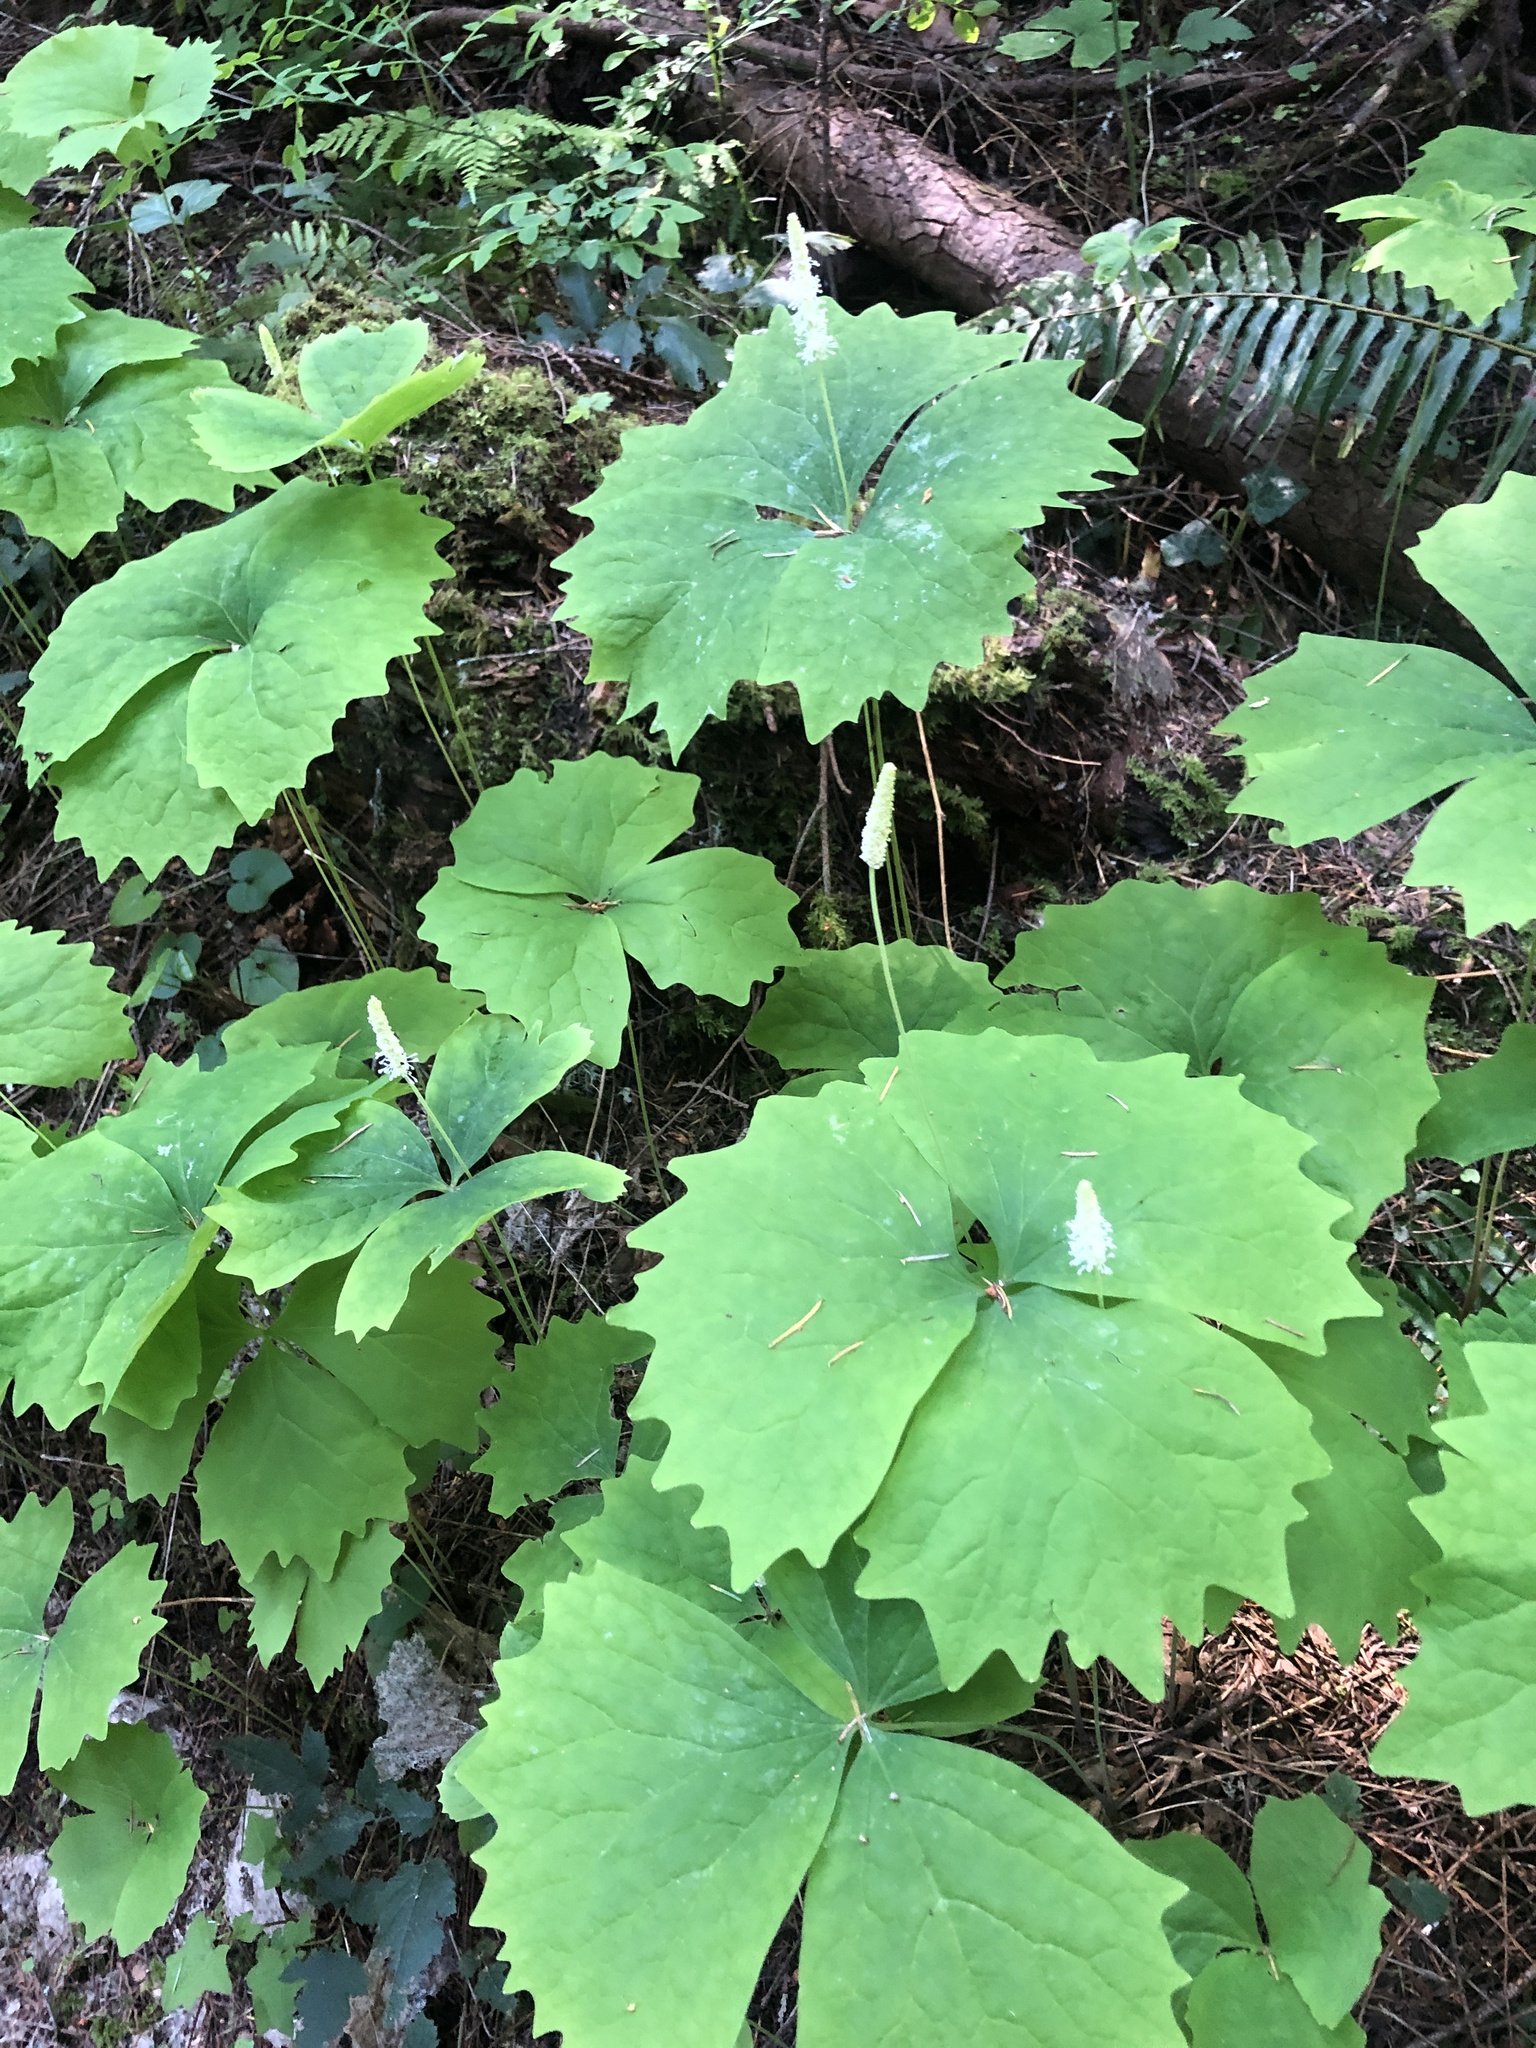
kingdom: Plantae
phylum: Tracheophyta
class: Magnoliopsida
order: Ranunculales
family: Berberidaceae
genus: Achlys
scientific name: Achlys triphylla
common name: Vanilla-leaf
